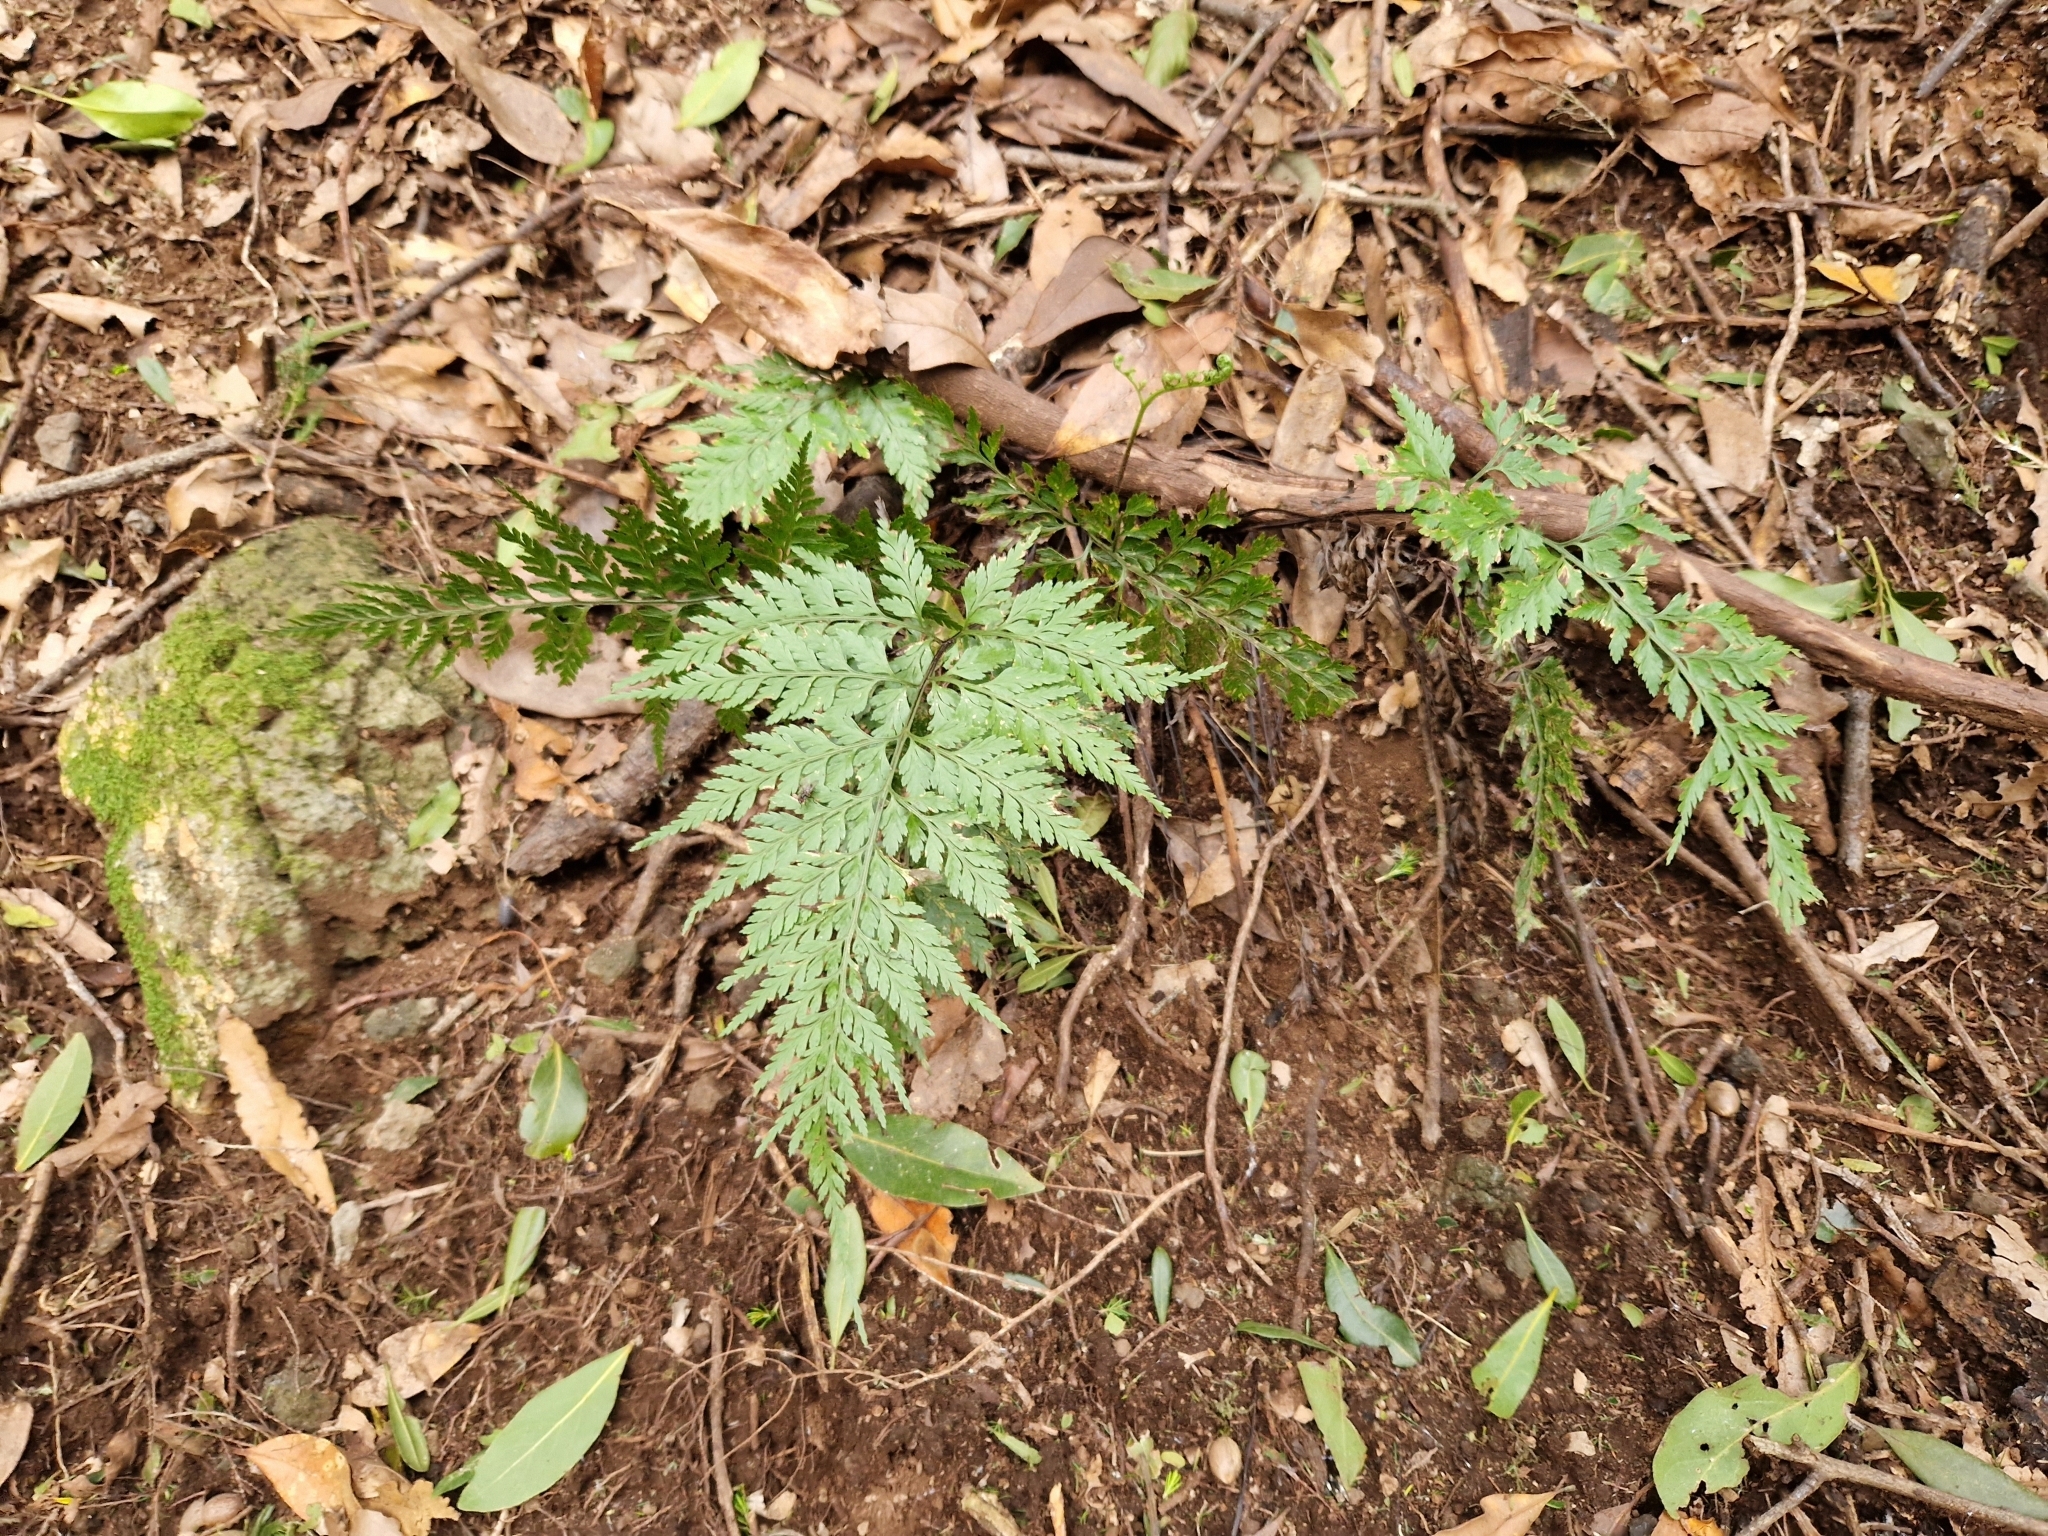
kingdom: Plantae
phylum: Tracheophyta
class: Polypodiopsida
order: Polypodiales
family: Aspleniaceae
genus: Asplenium
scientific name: Asplenium onopteris
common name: Irish spleenwort
